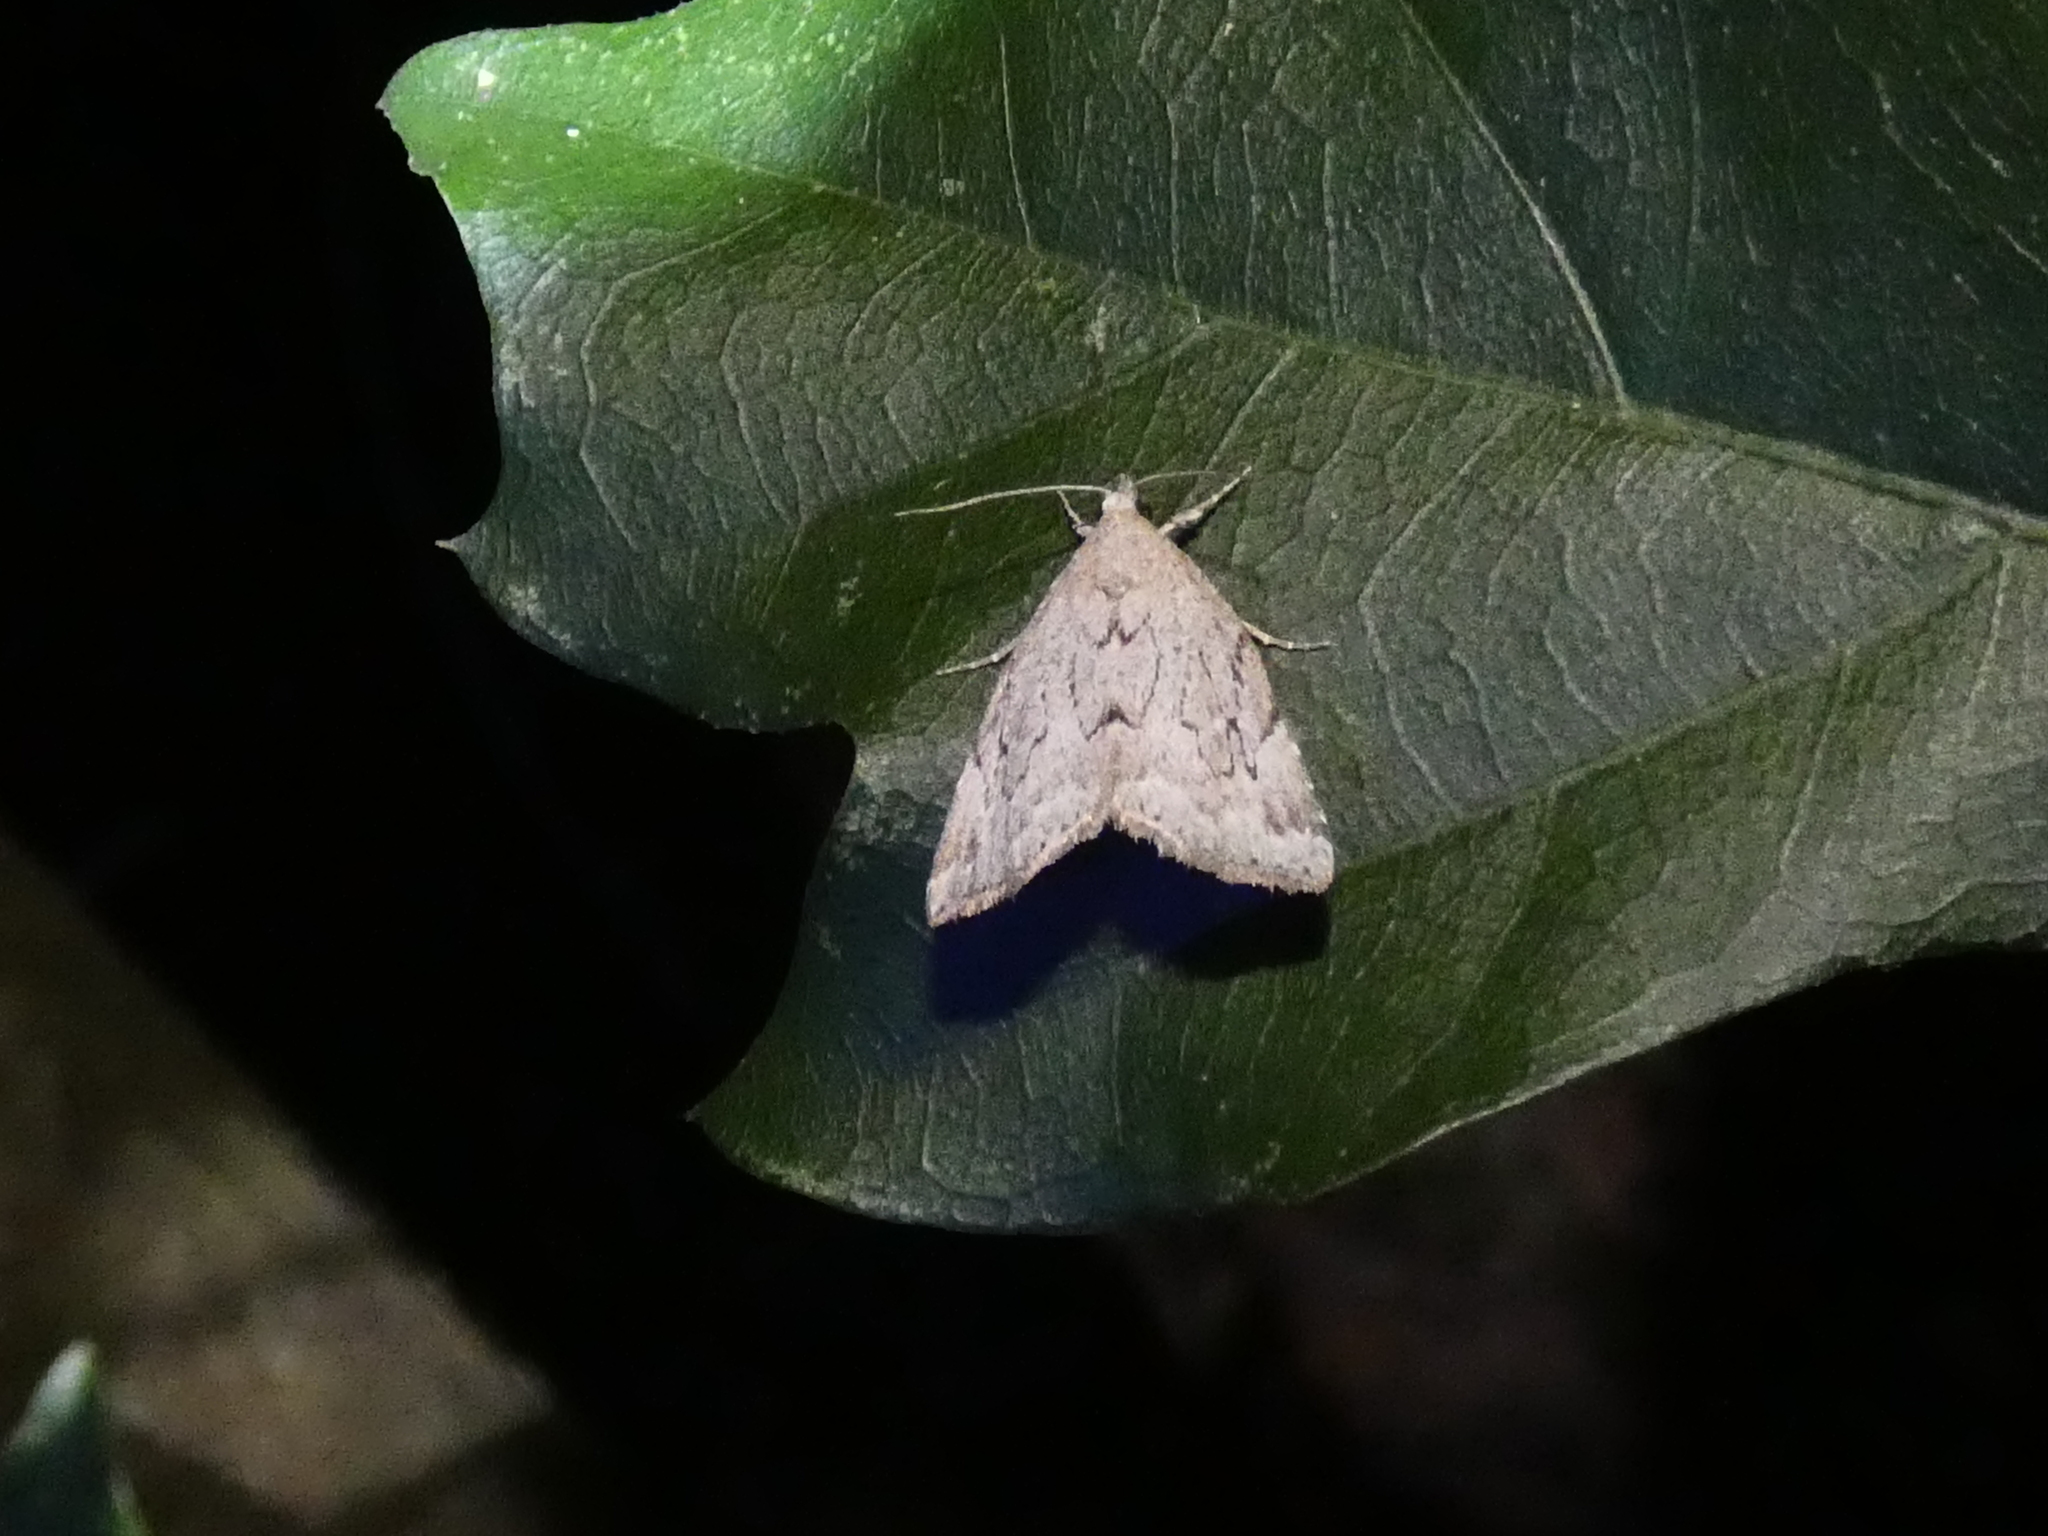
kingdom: Animalia
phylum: Arthropoda
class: Insecta
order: Lepidoptera
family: Erebidae
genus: Cutina
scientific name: Cutina albopunctella
